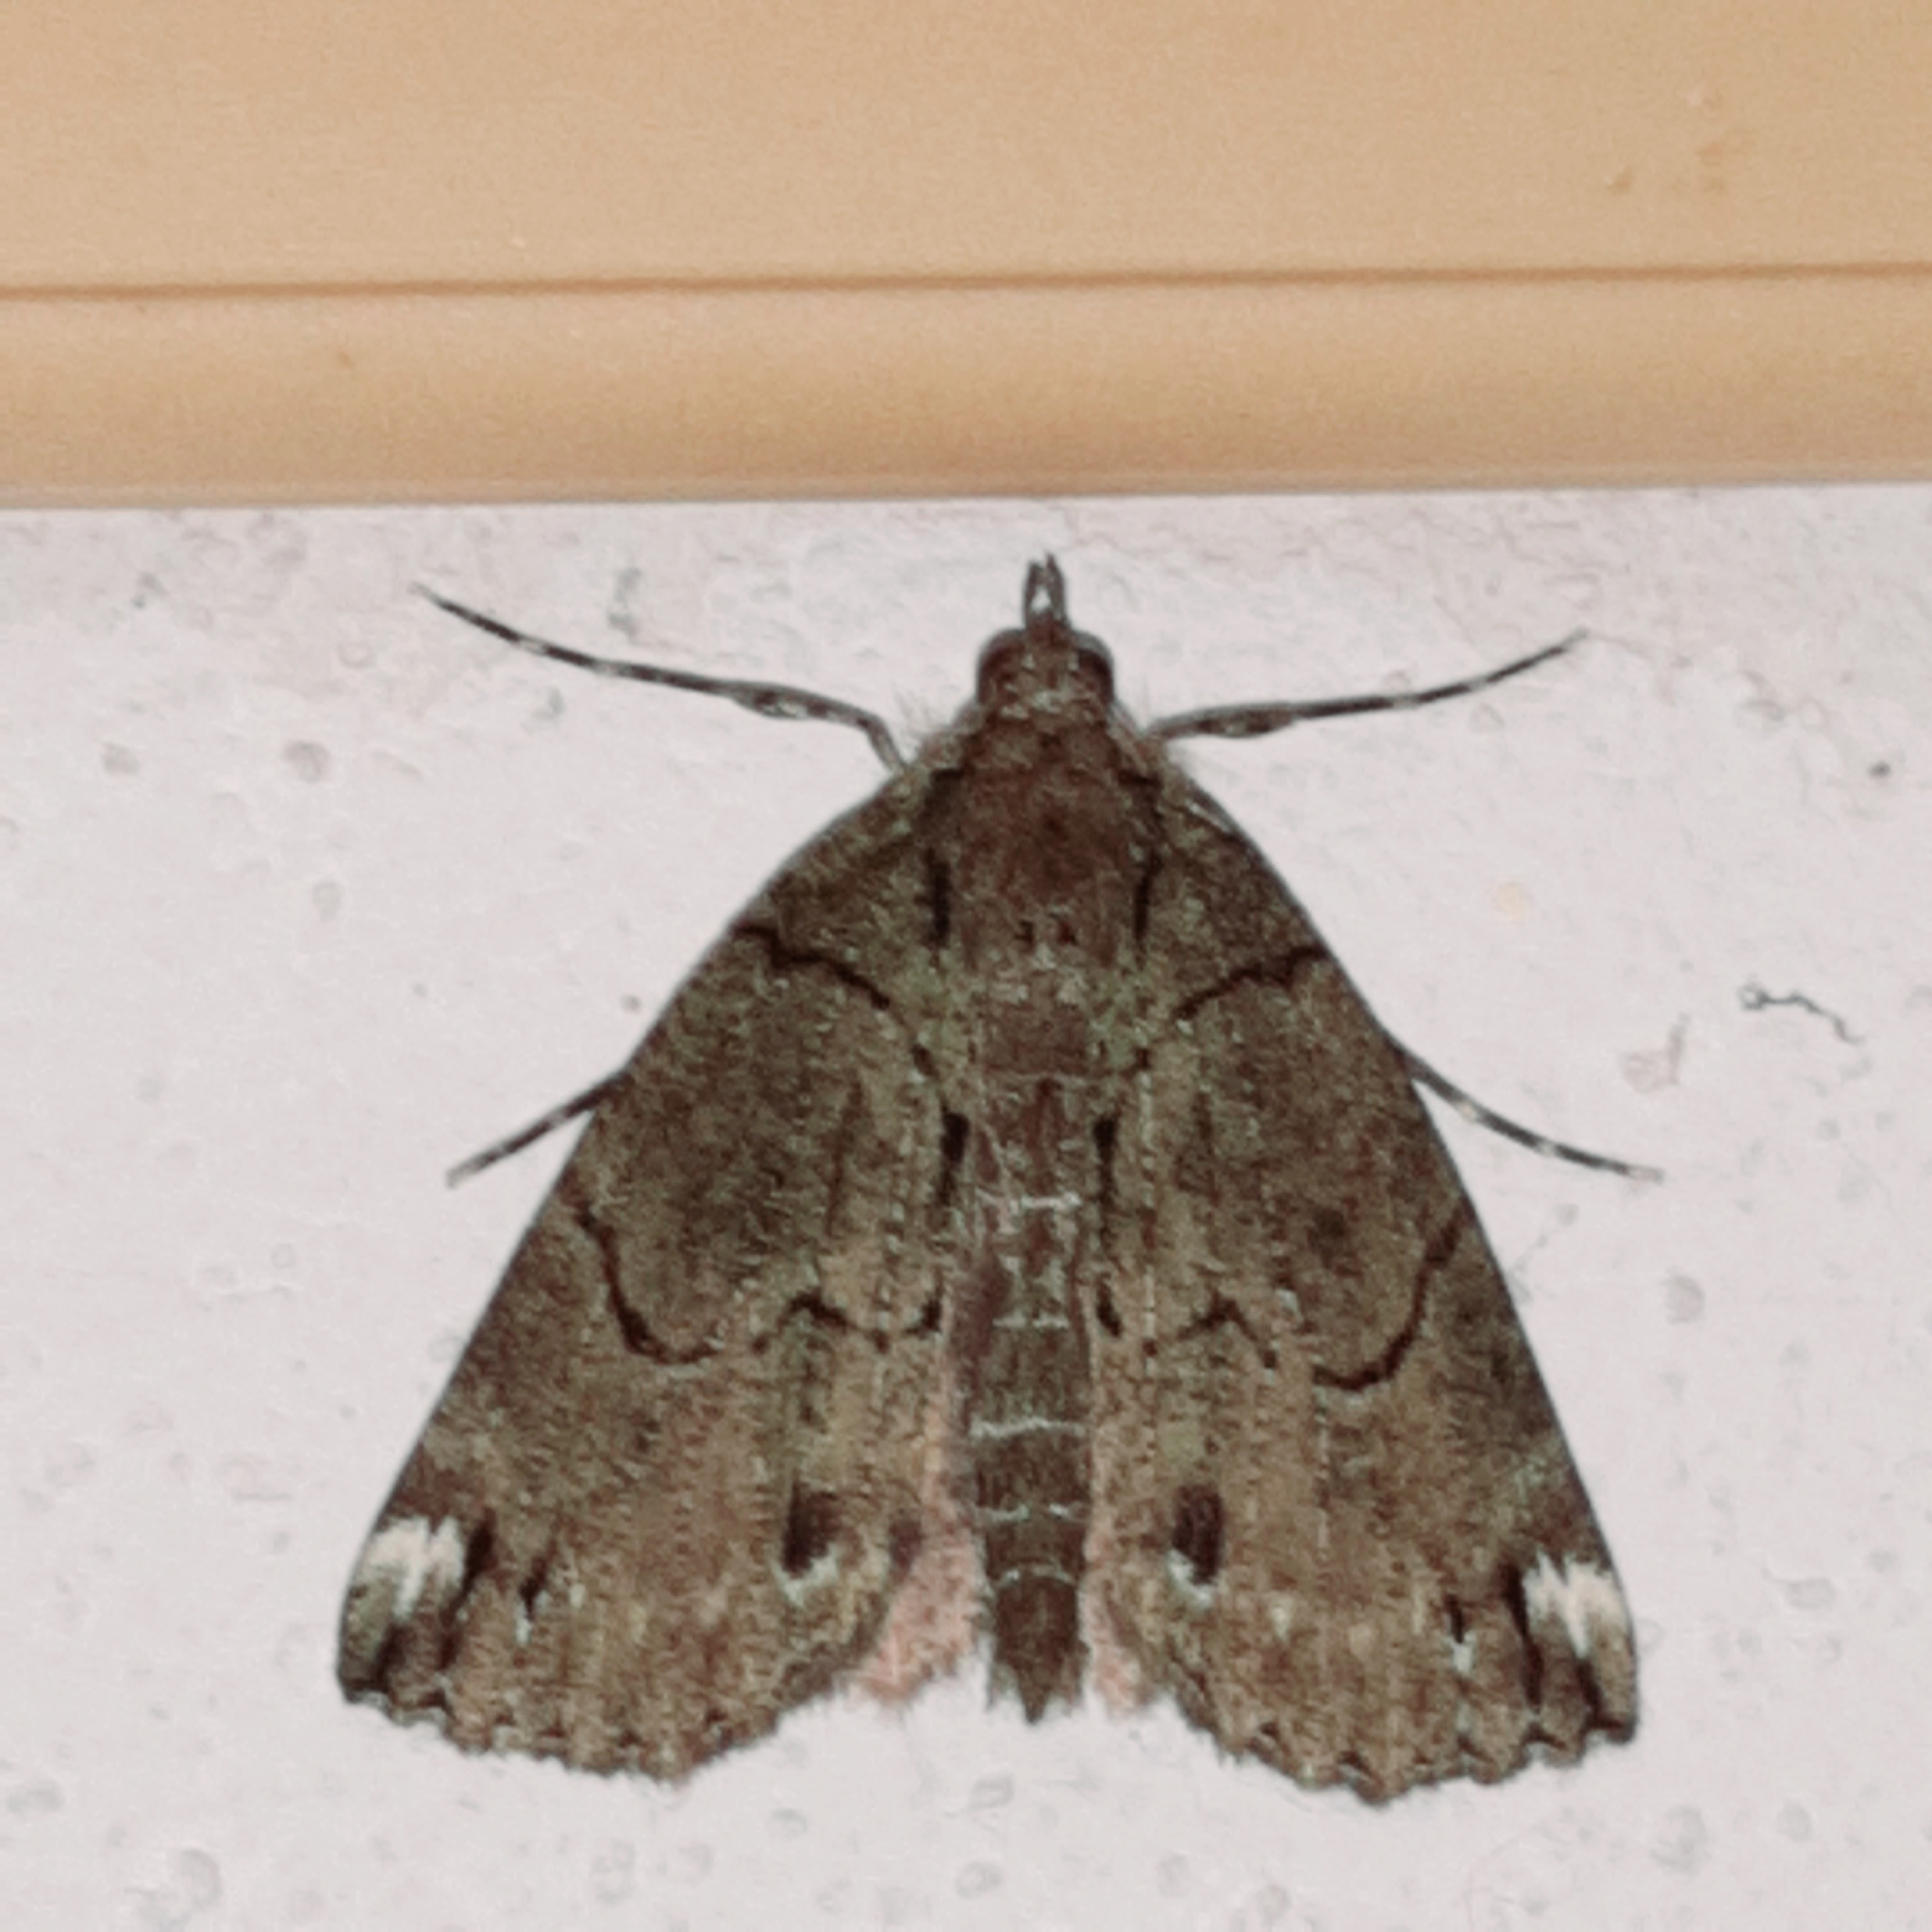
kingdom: Animalia
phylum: Arthropoda
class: Insecta
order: Lepidoptera
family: Geometridae
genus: Ischnopteris
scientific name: Ischnopteris bifinita
